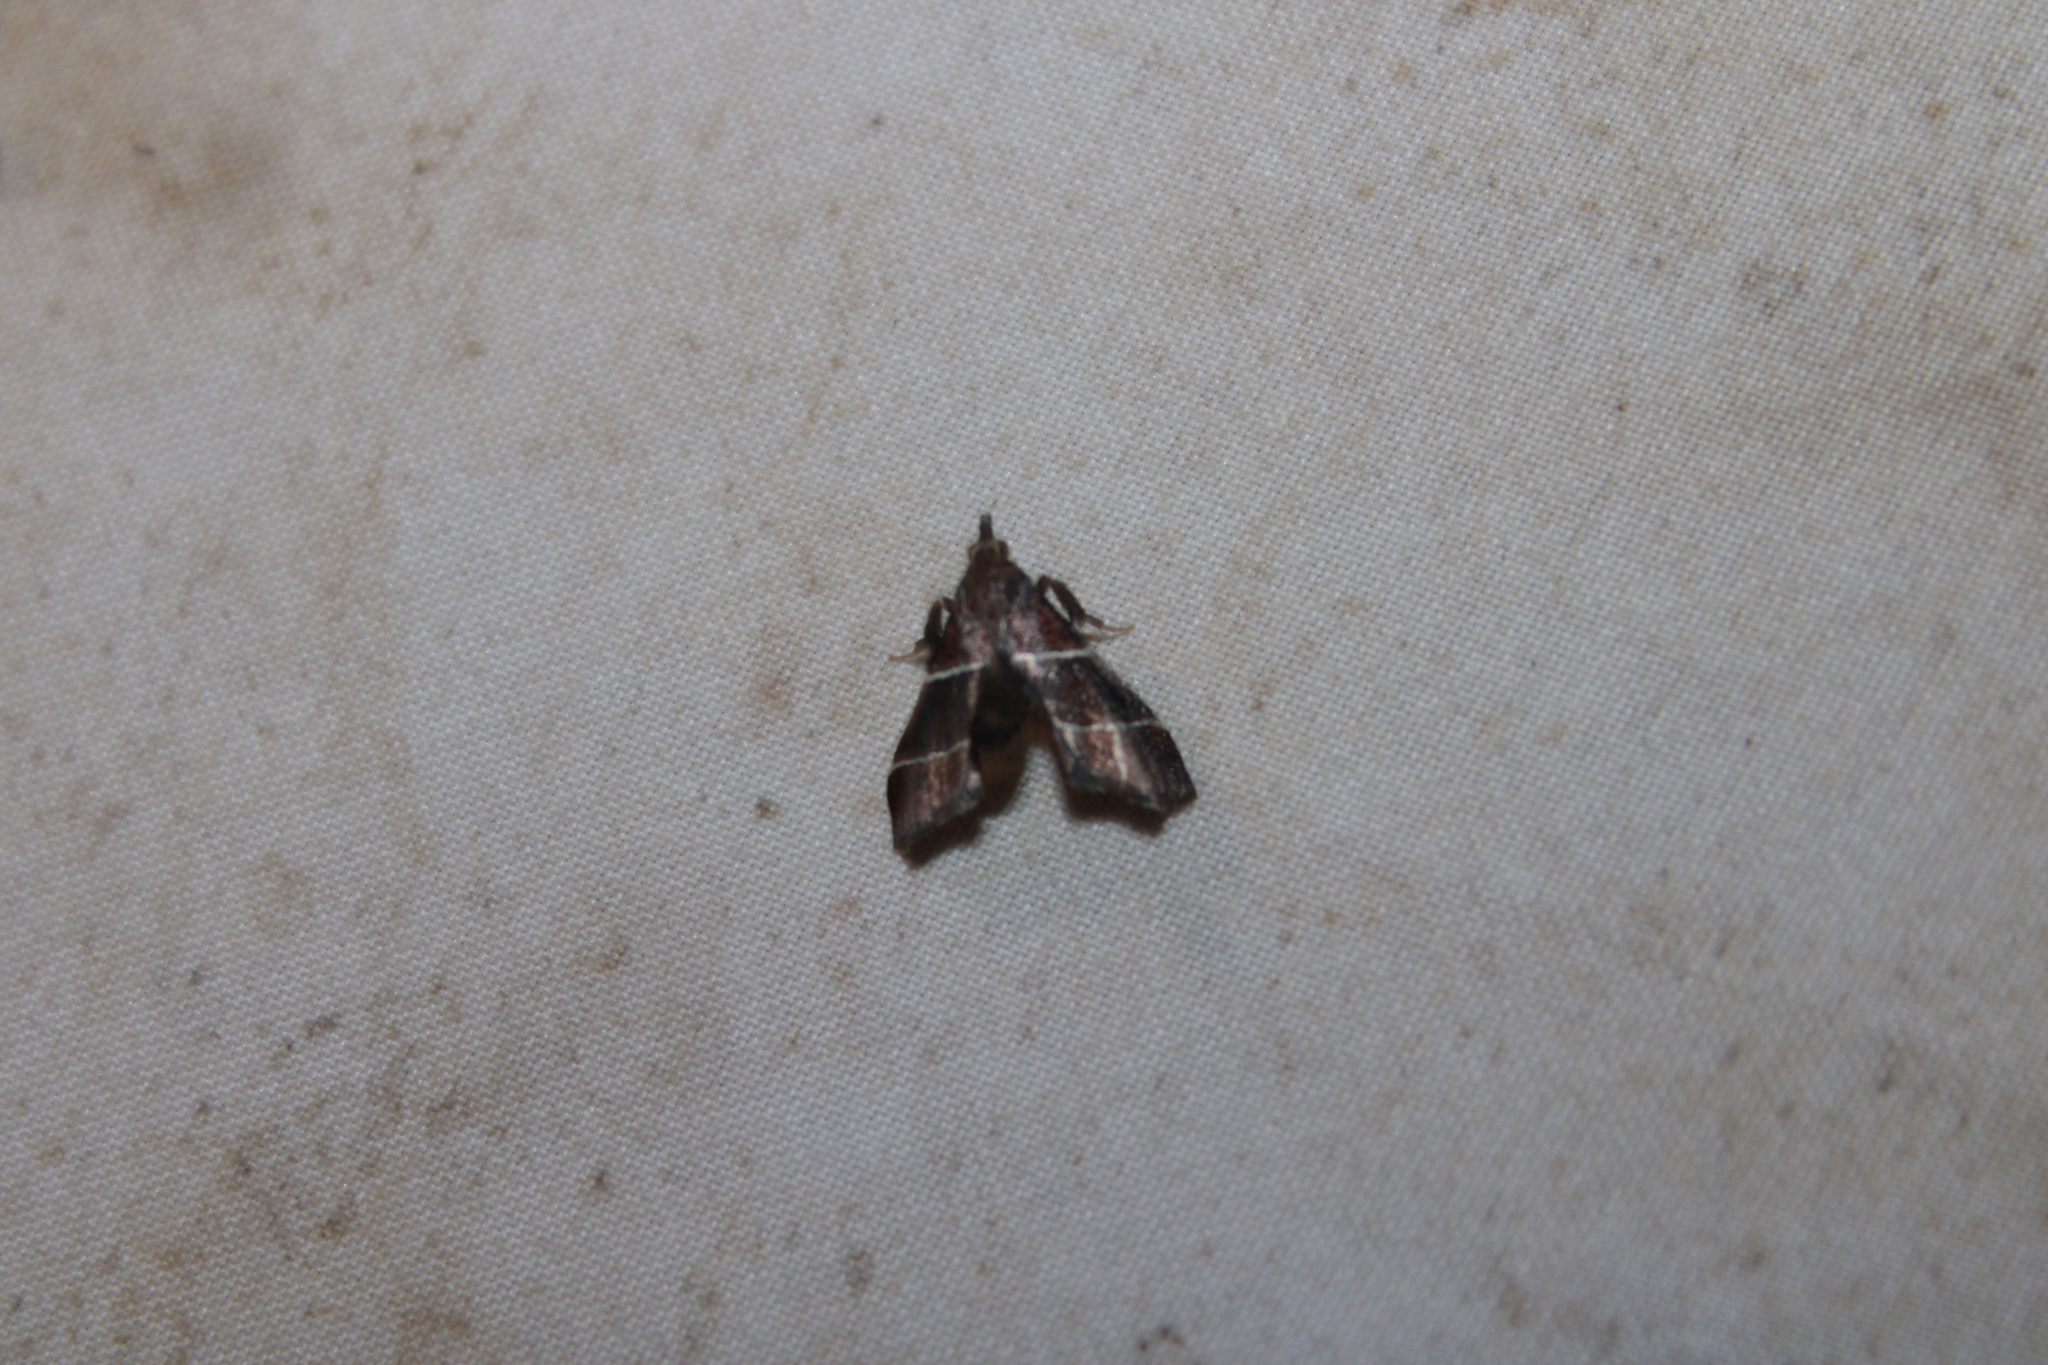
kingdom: Animalia
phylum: Arthropoda
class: Insecta
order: Lepidoptera
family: Pyralidae
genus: Penthesilea
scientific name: Penthesilea difficilis
